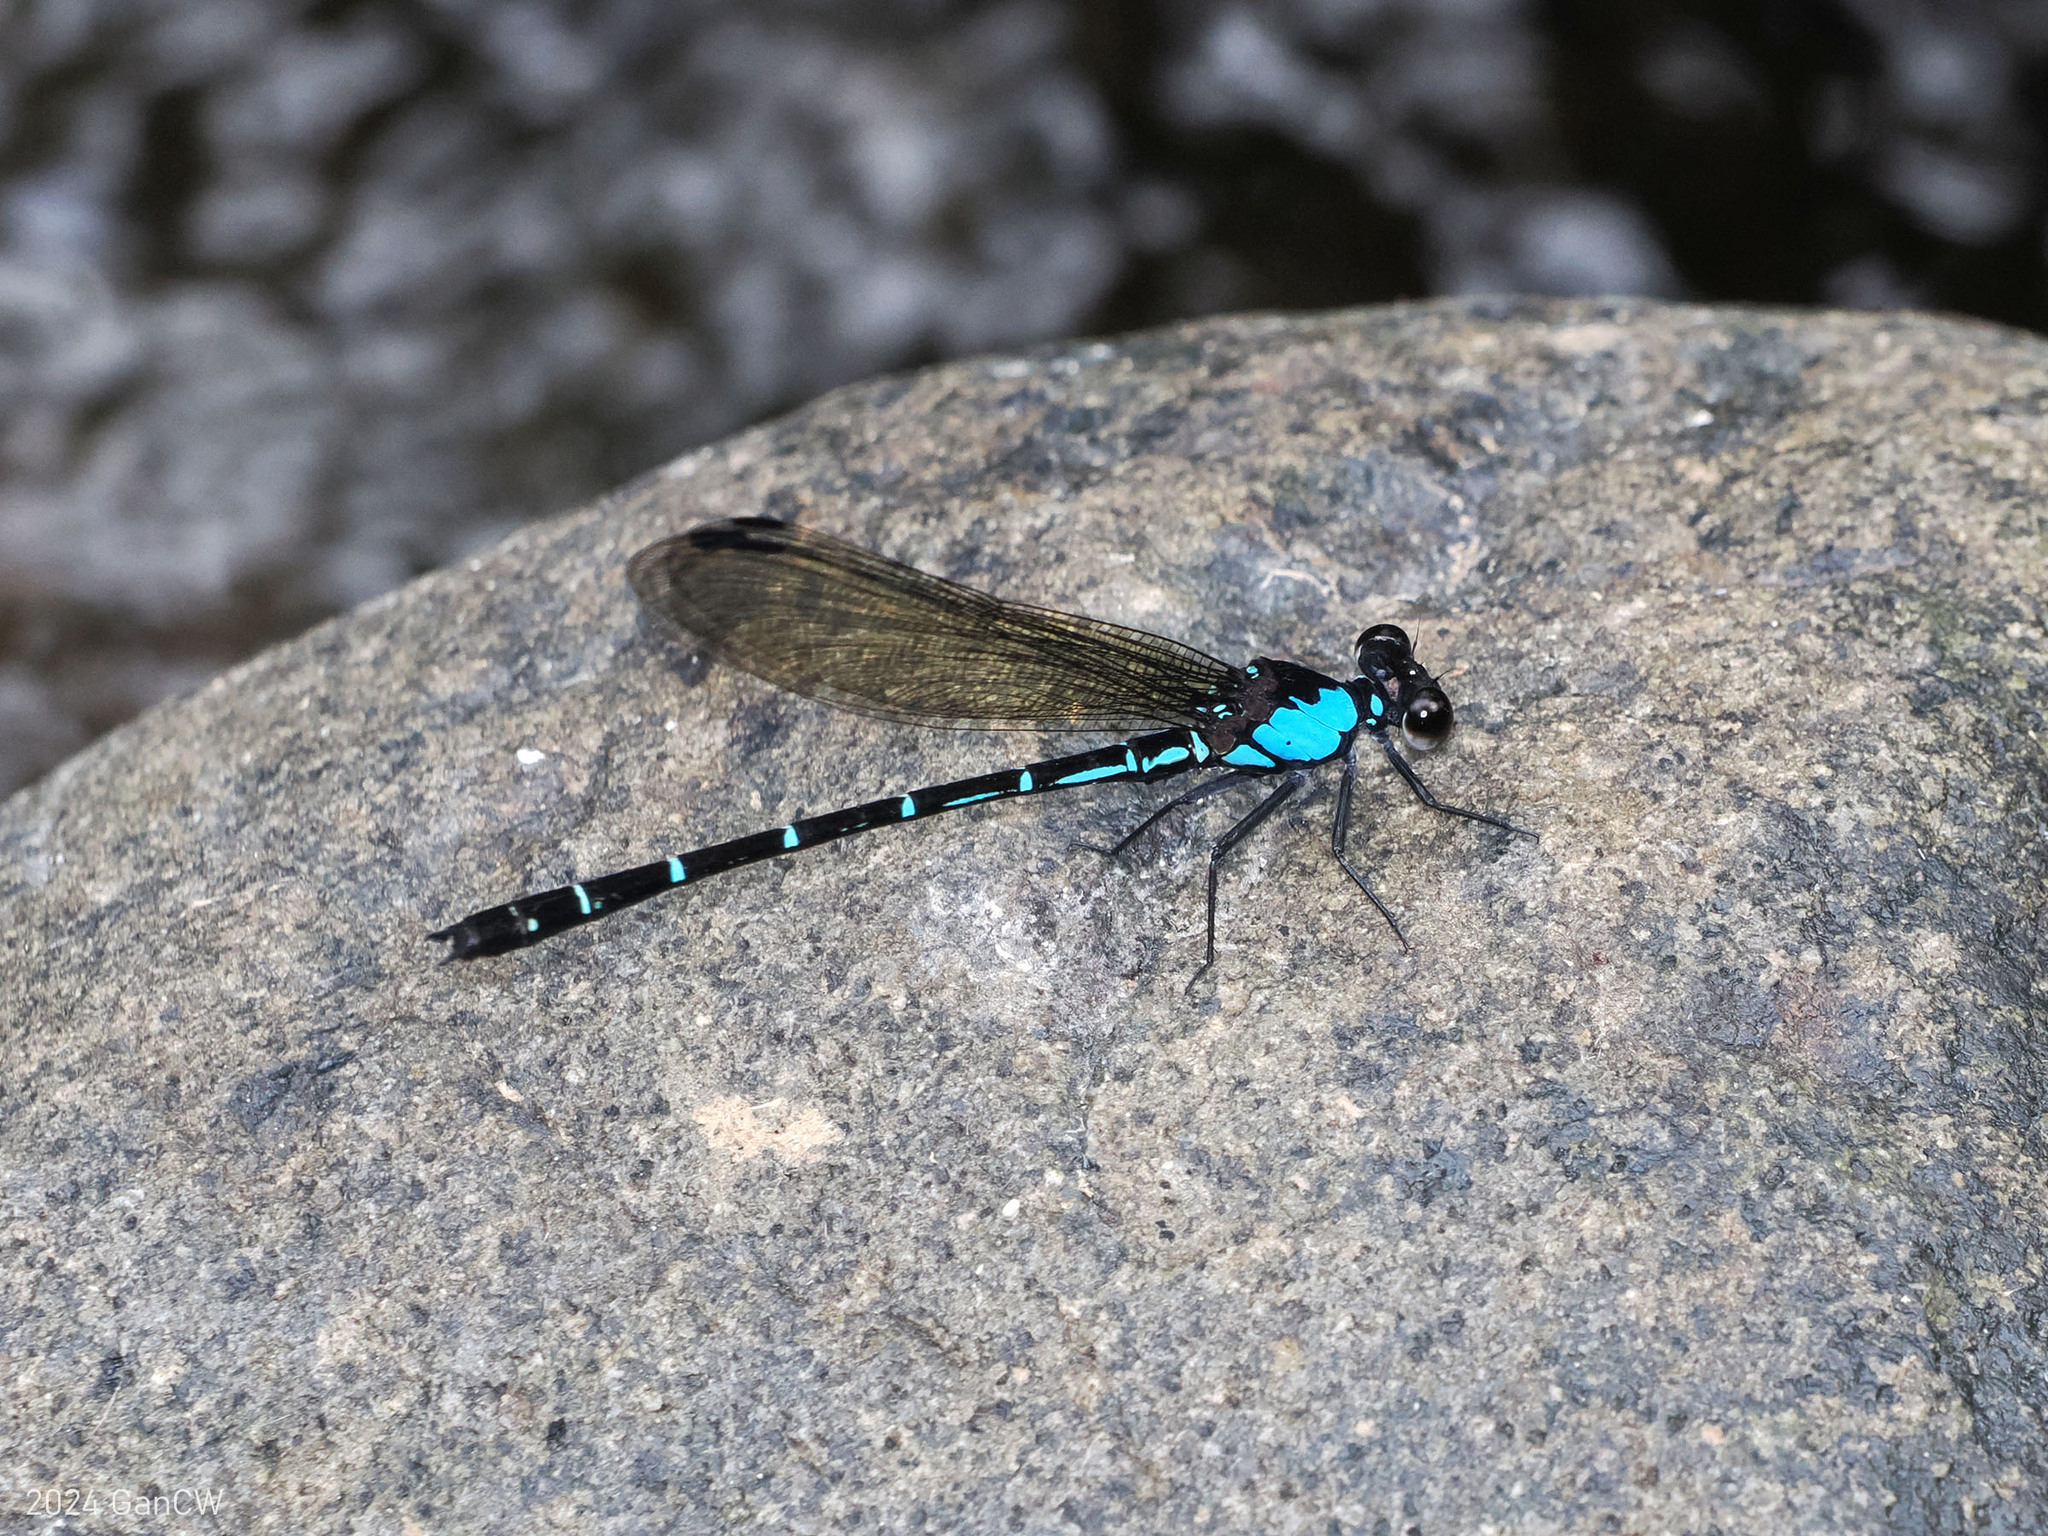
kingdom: Animalia
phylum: Arthropoda
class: Insecta
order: Odonata
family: Euphaeidae
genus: Euphaea
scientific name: Euphaea cora
